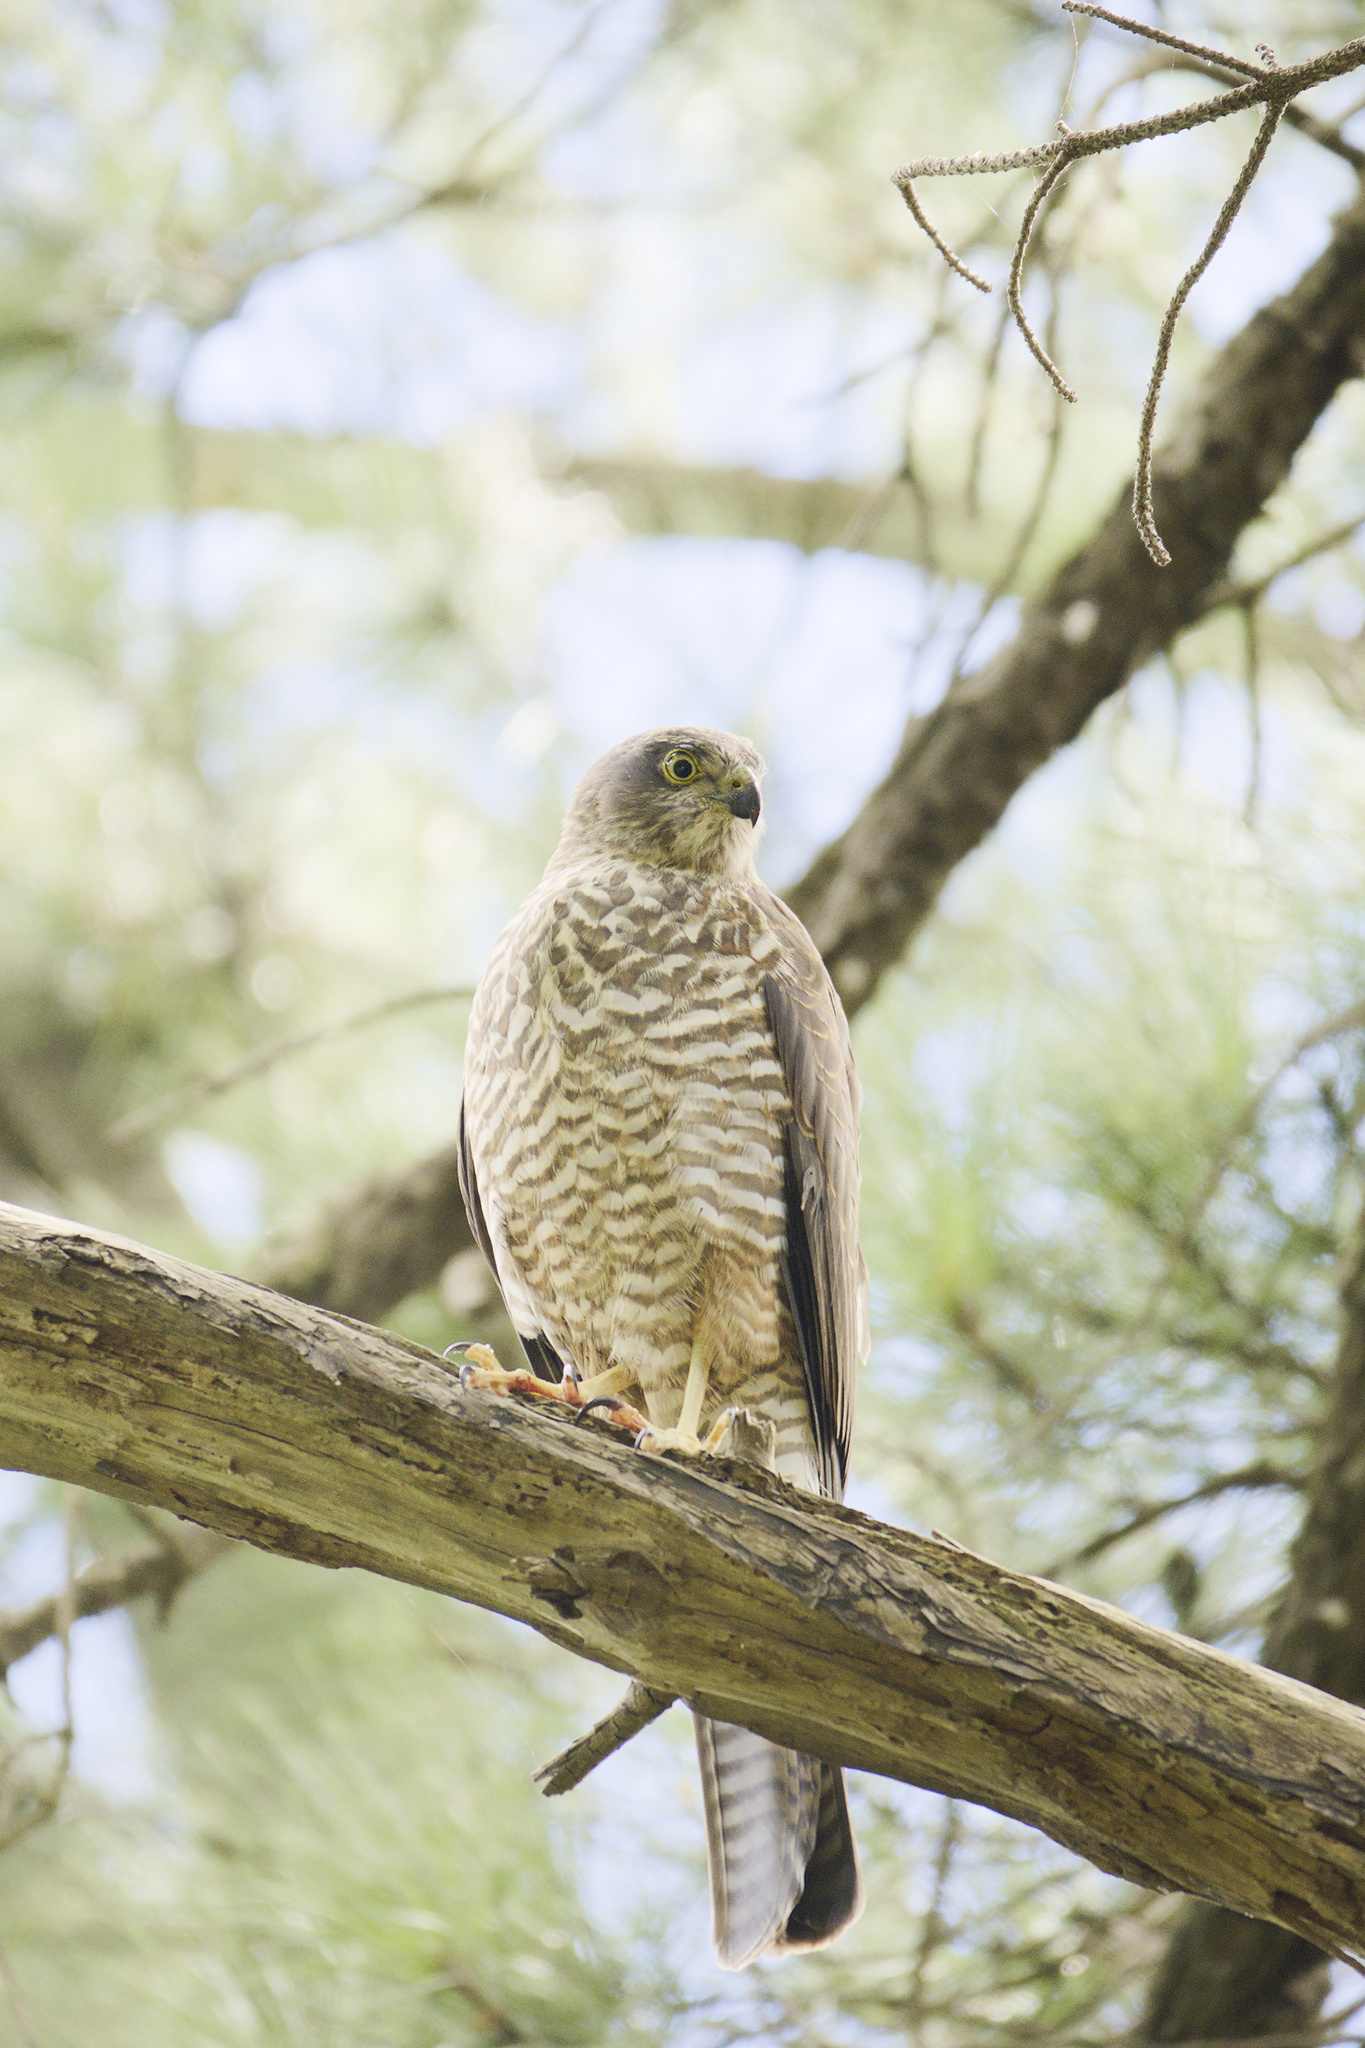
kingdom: Animalia
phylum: Chordata
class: Aves
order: Accipitriformes
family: Accipitridae
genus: Accipiter
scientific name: Accipiter cirrocephalus
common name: Collared sparrowhawk
